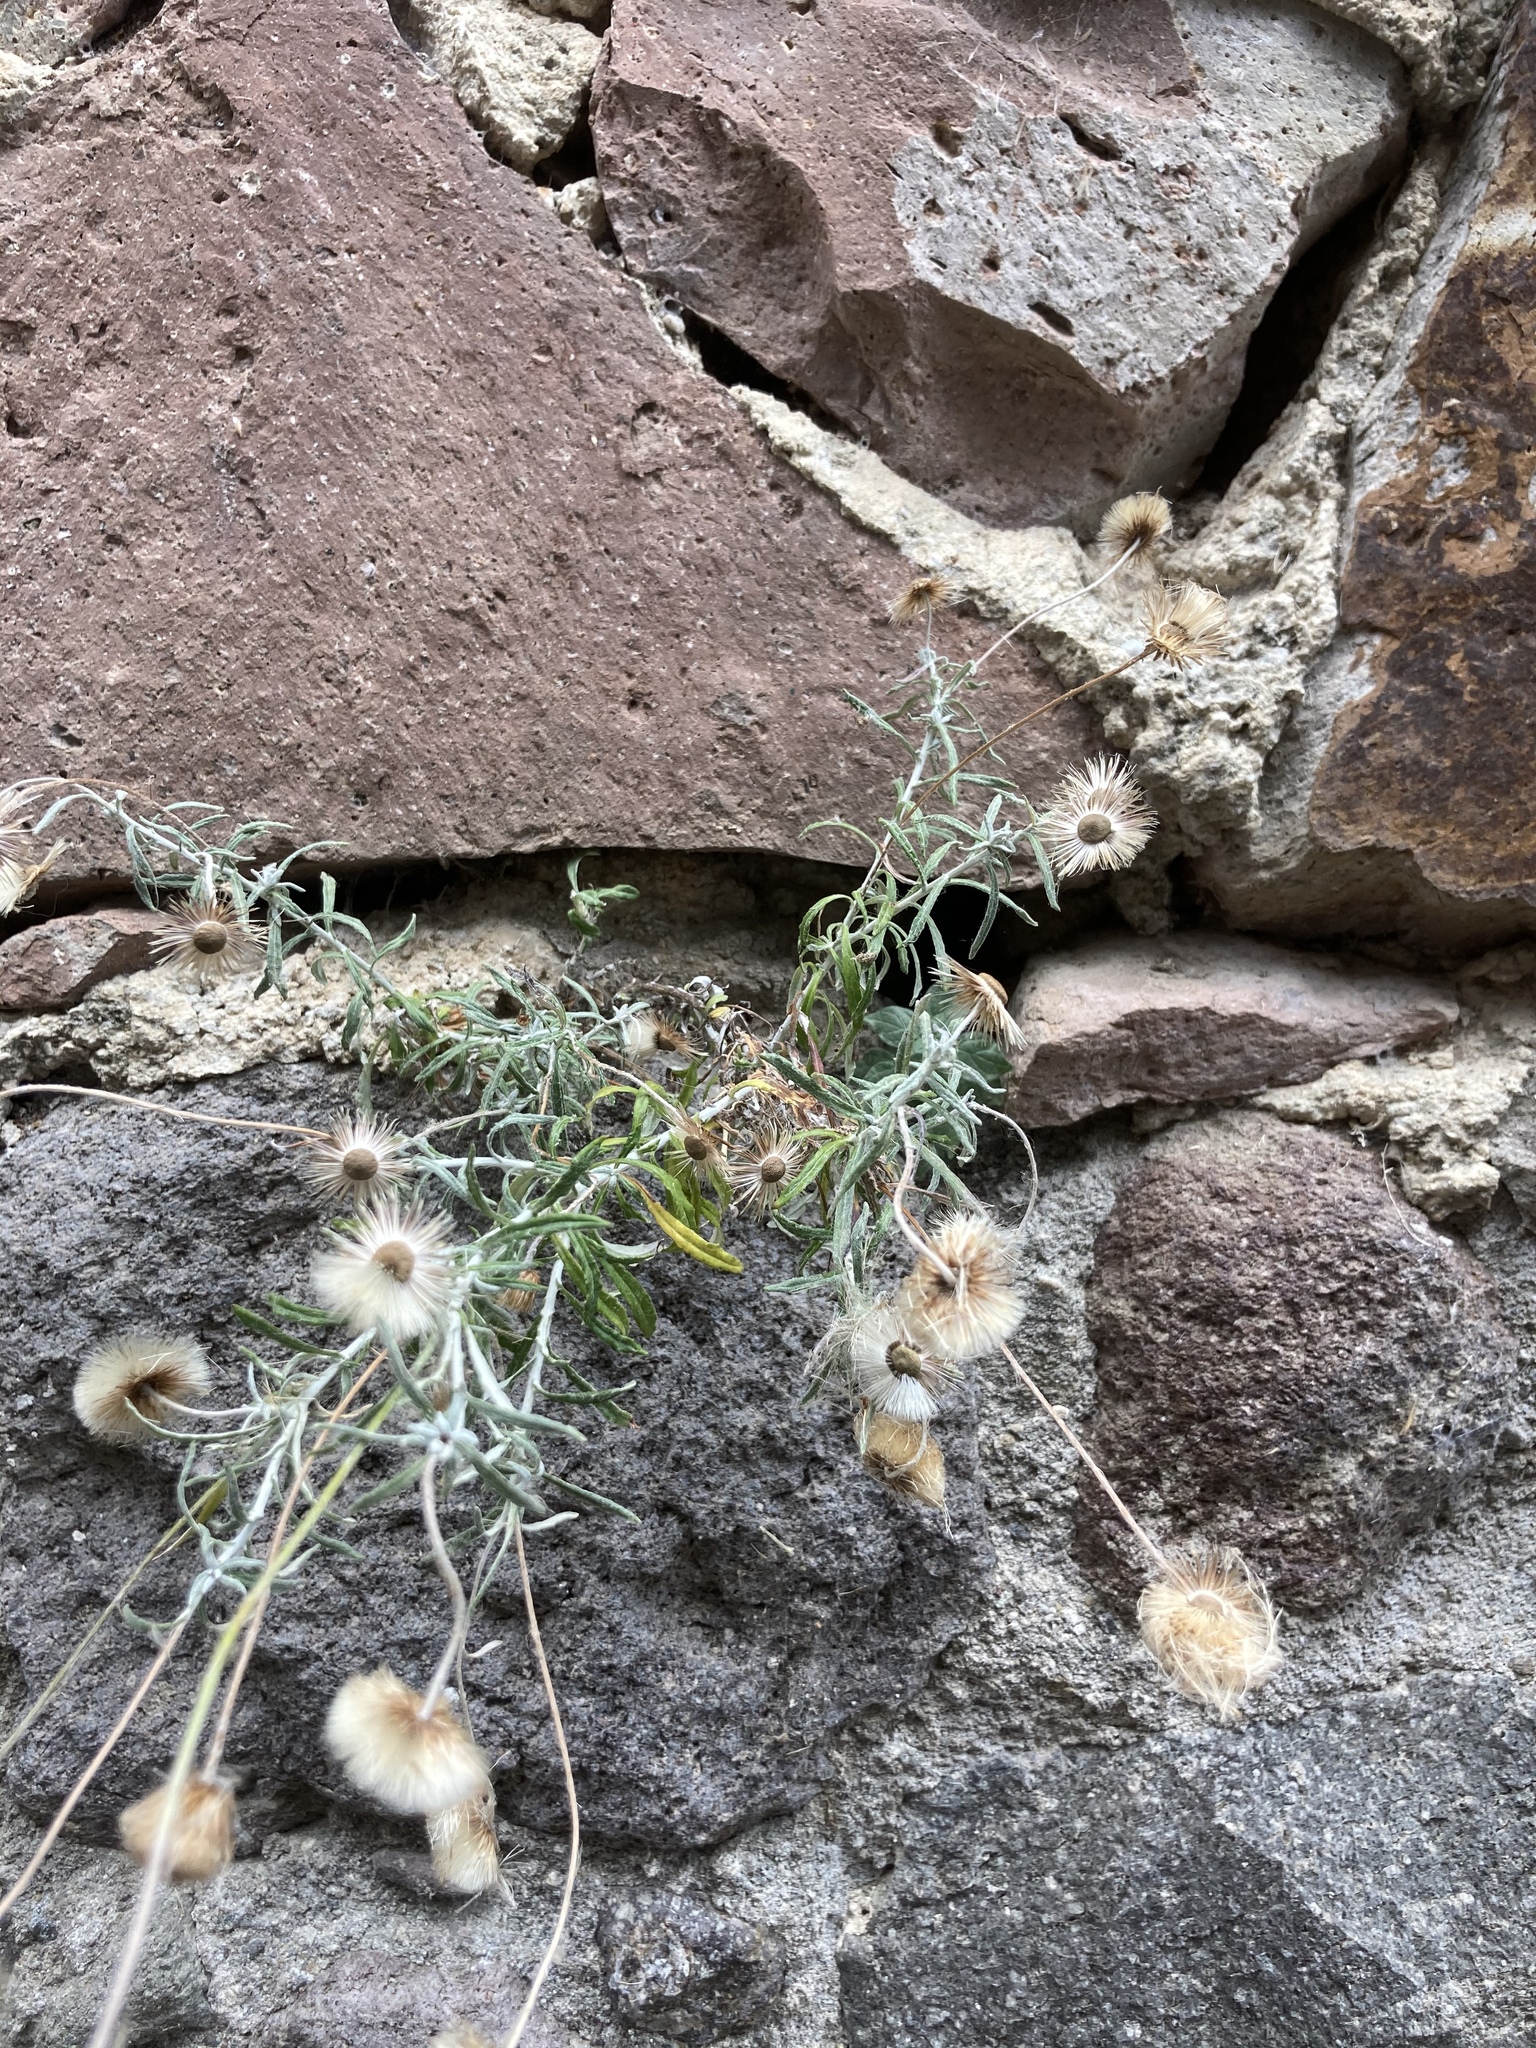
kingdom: Plantae
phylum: Tracheophyta
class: Magnoliopsida
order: Asterales
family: Asteraceae
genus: Phagnalon
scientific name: Phagnalon
